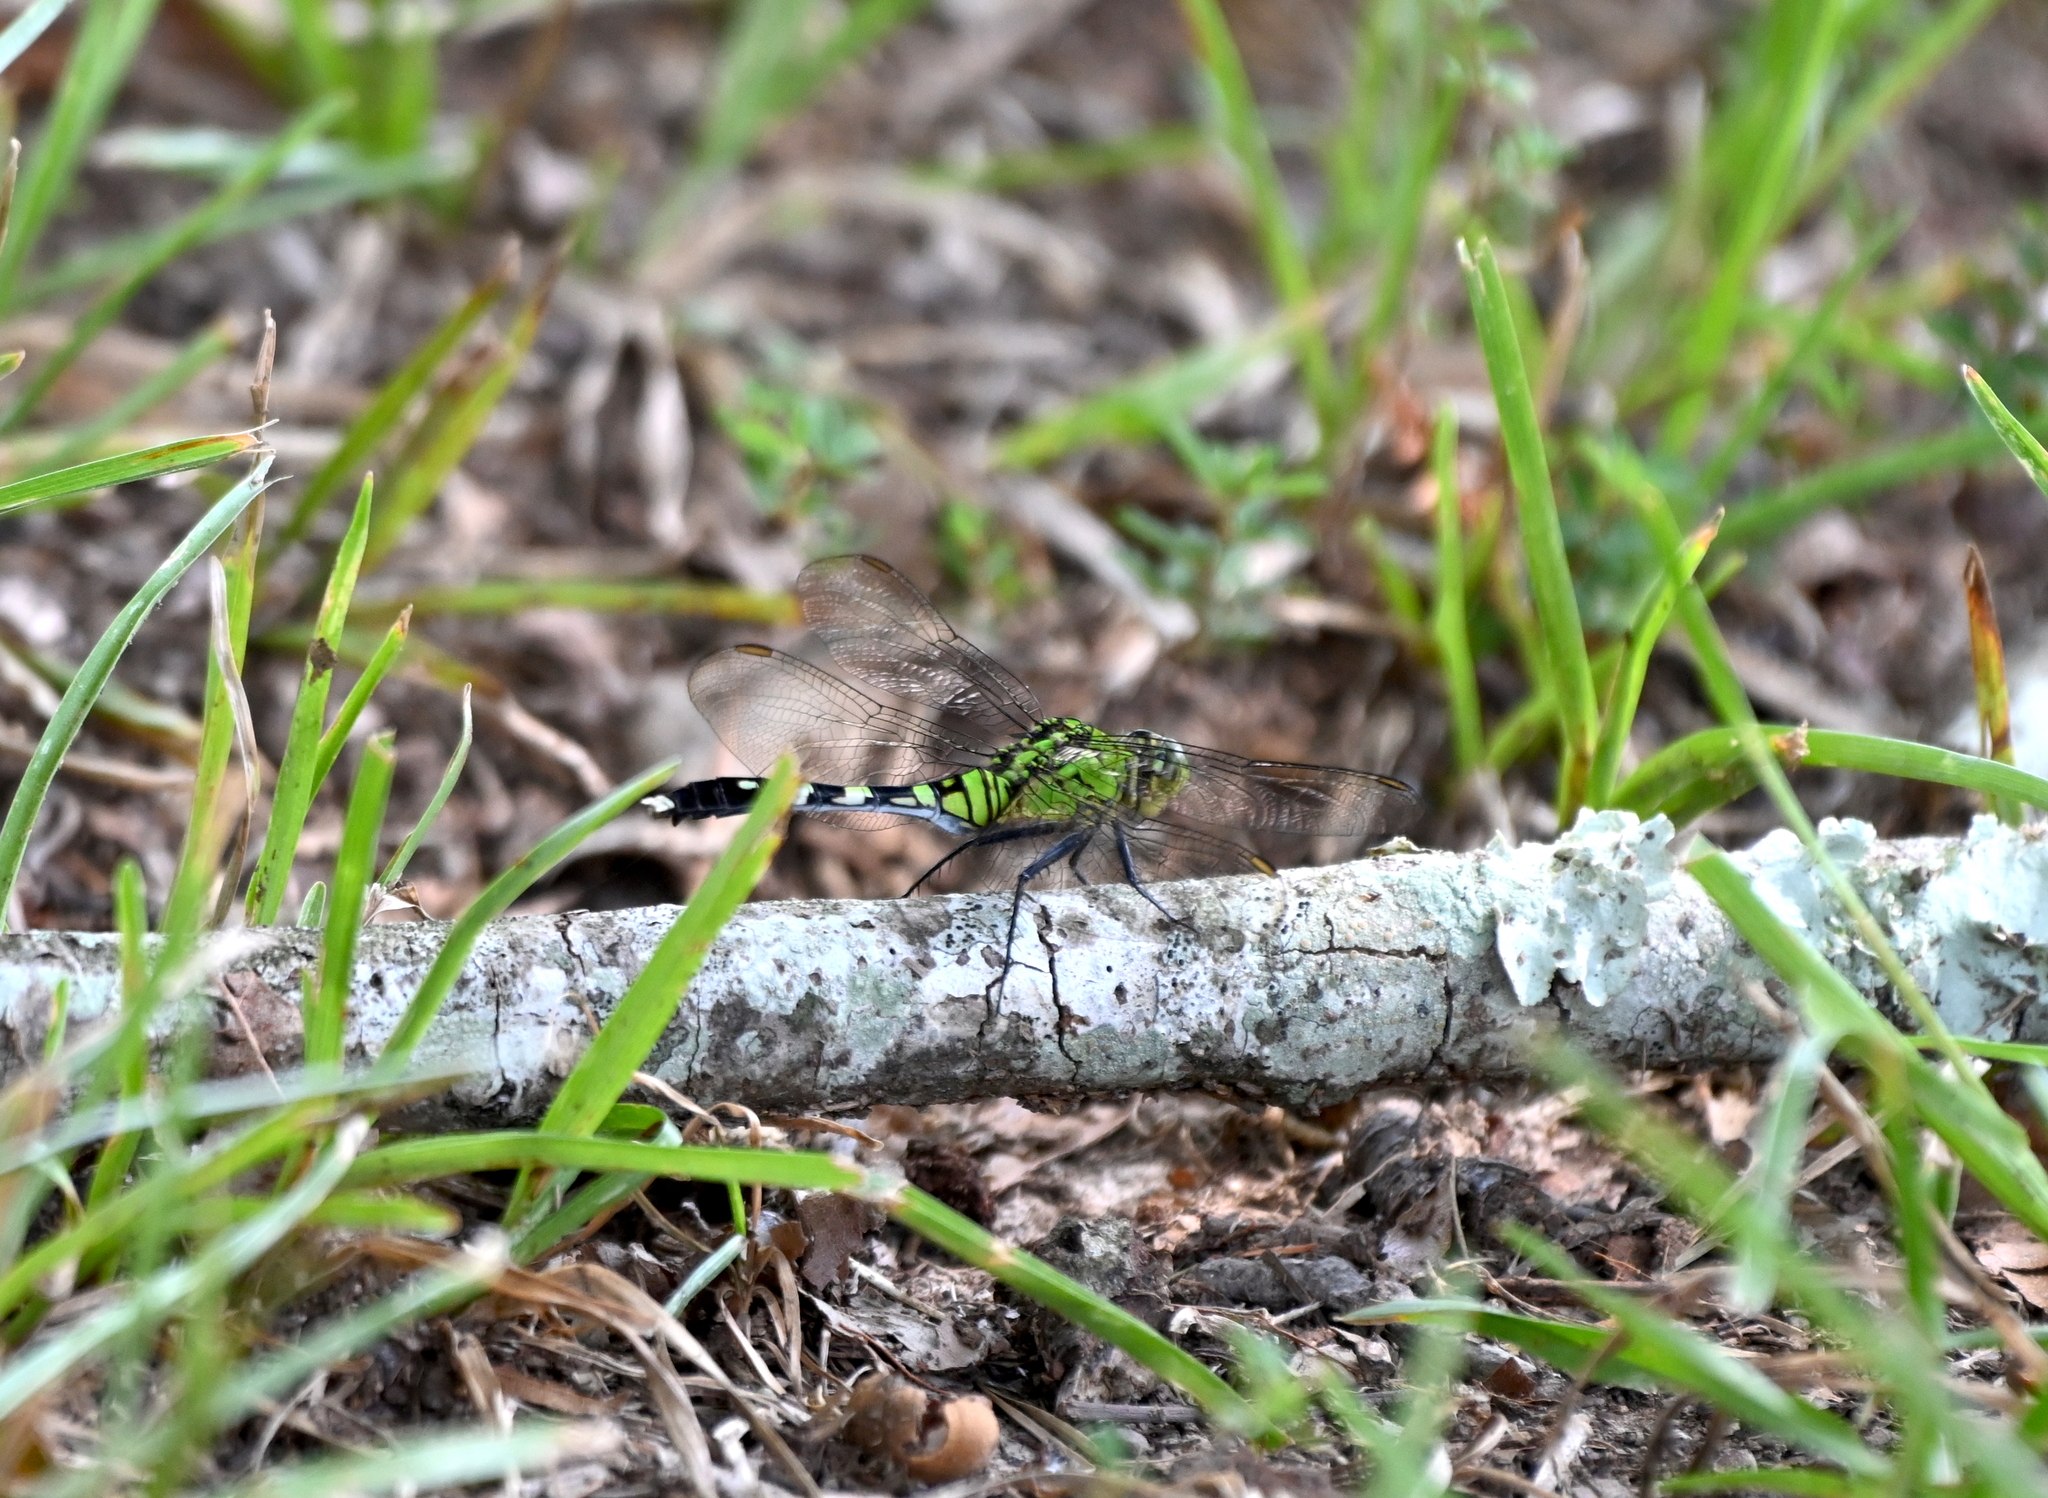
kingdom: Animalia
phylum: Arthropoda
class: Insecta
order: Odonata
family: Libellulidae
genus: Erythemis
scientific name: Erythemis simplicicollis
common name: Eastern pondhawk
